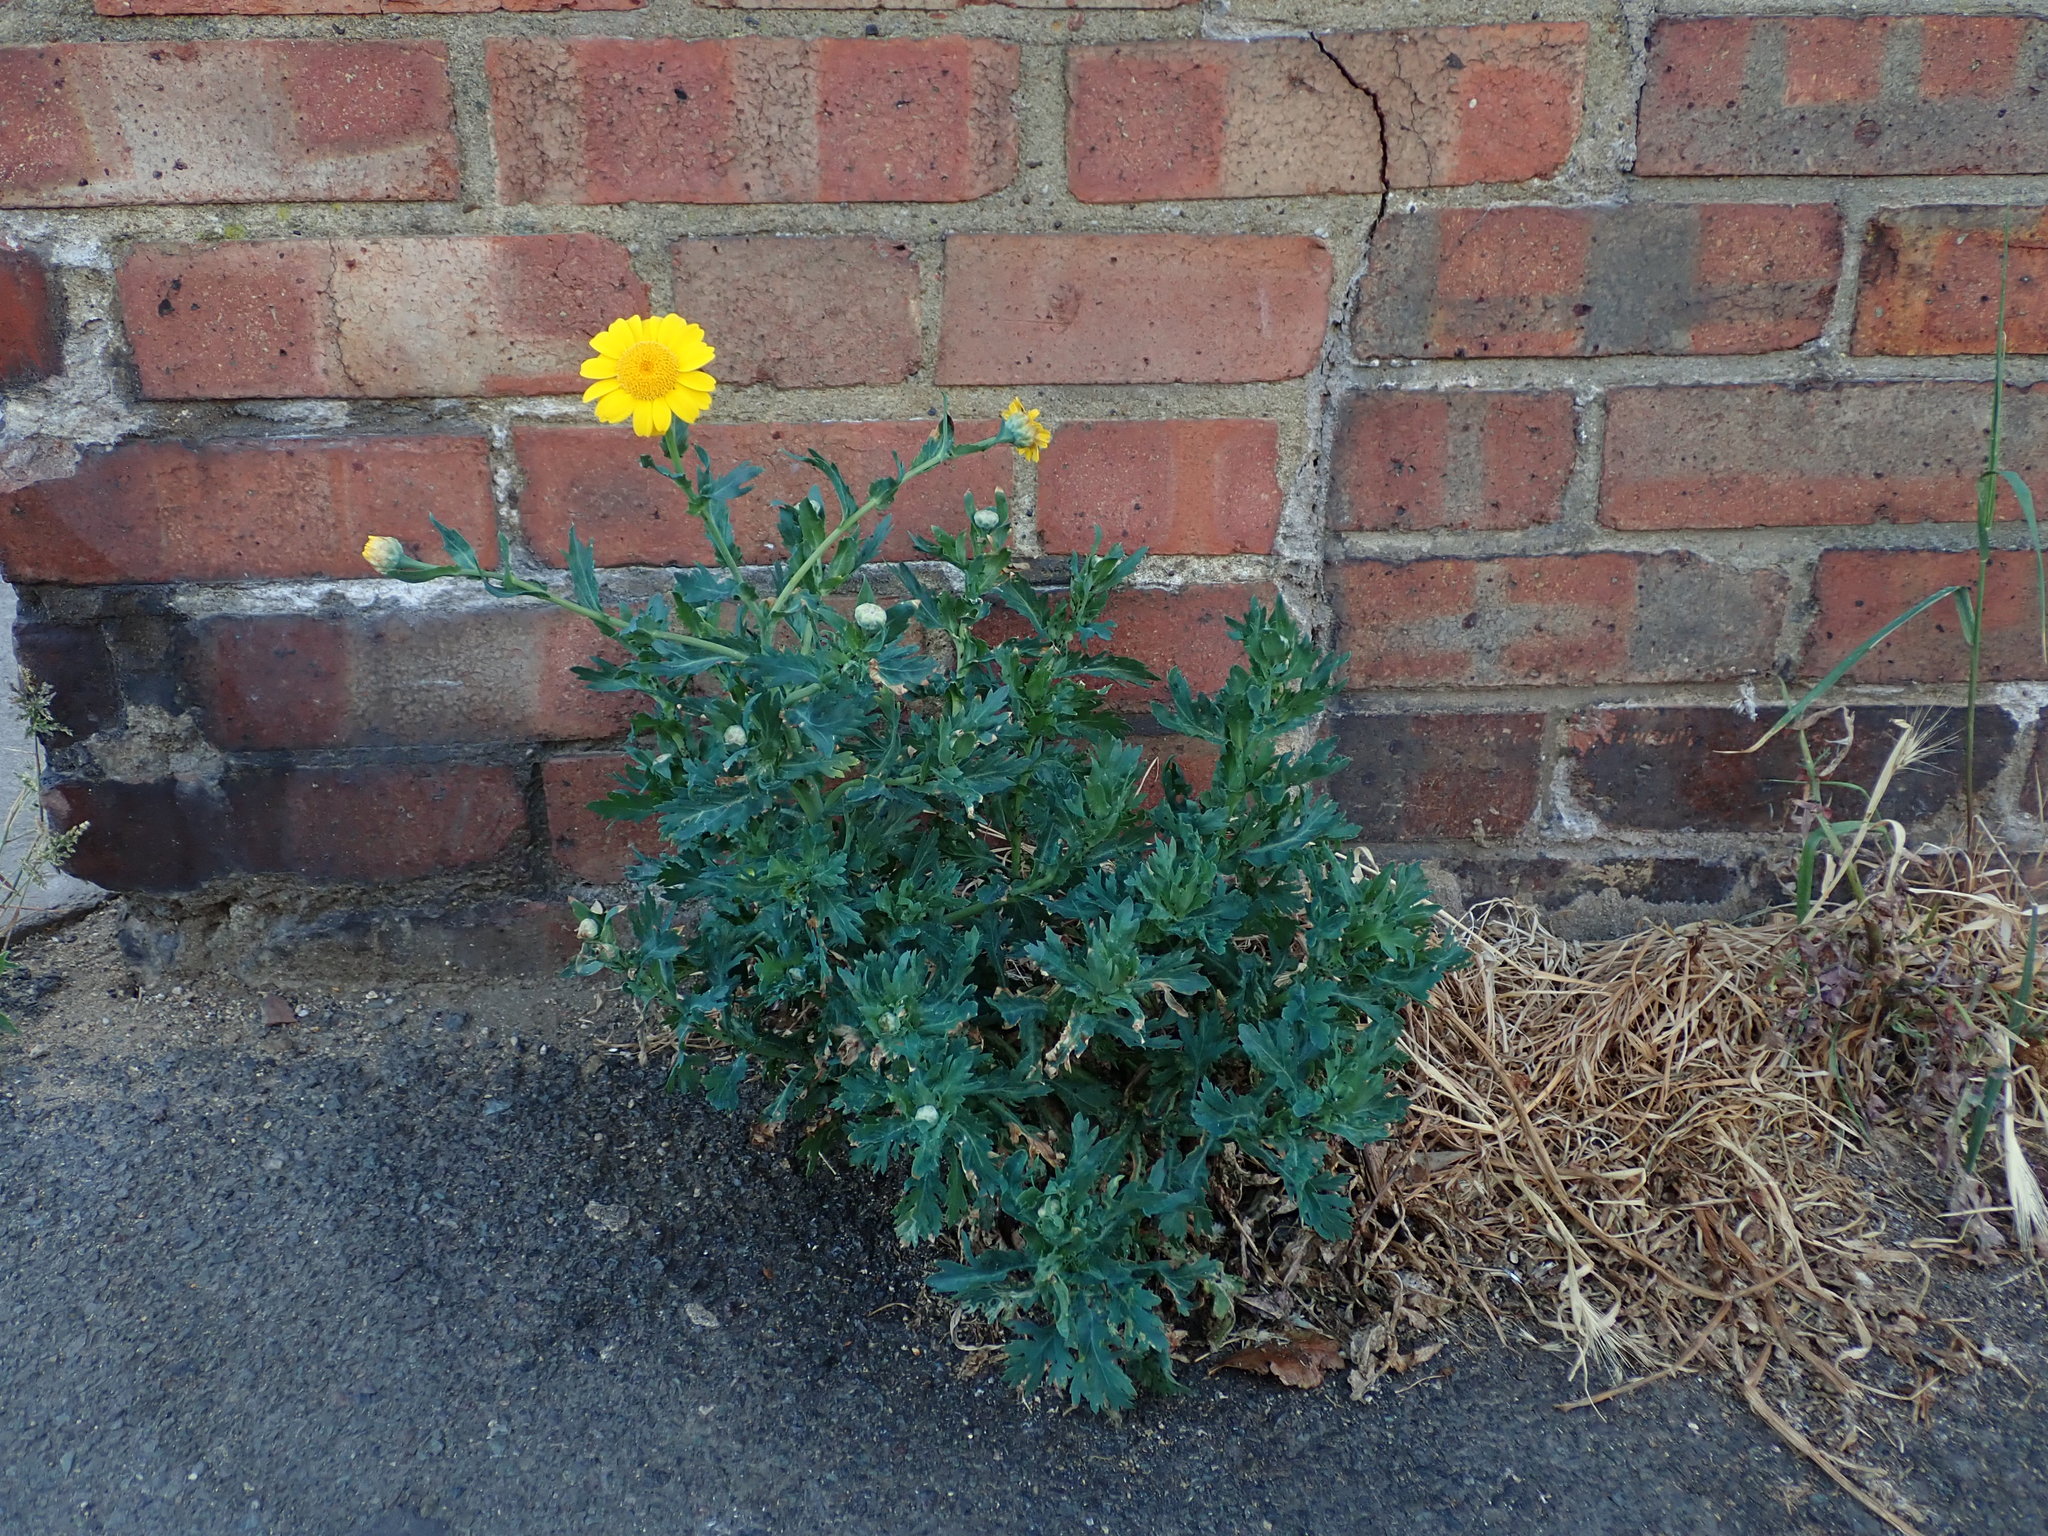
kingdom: Plantae
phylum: Tracheophyta
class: Magnoliopsida
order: Asterales
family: Asteraceae
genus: Glebionis
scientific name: Glebionis segetum
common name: Corndaisy
